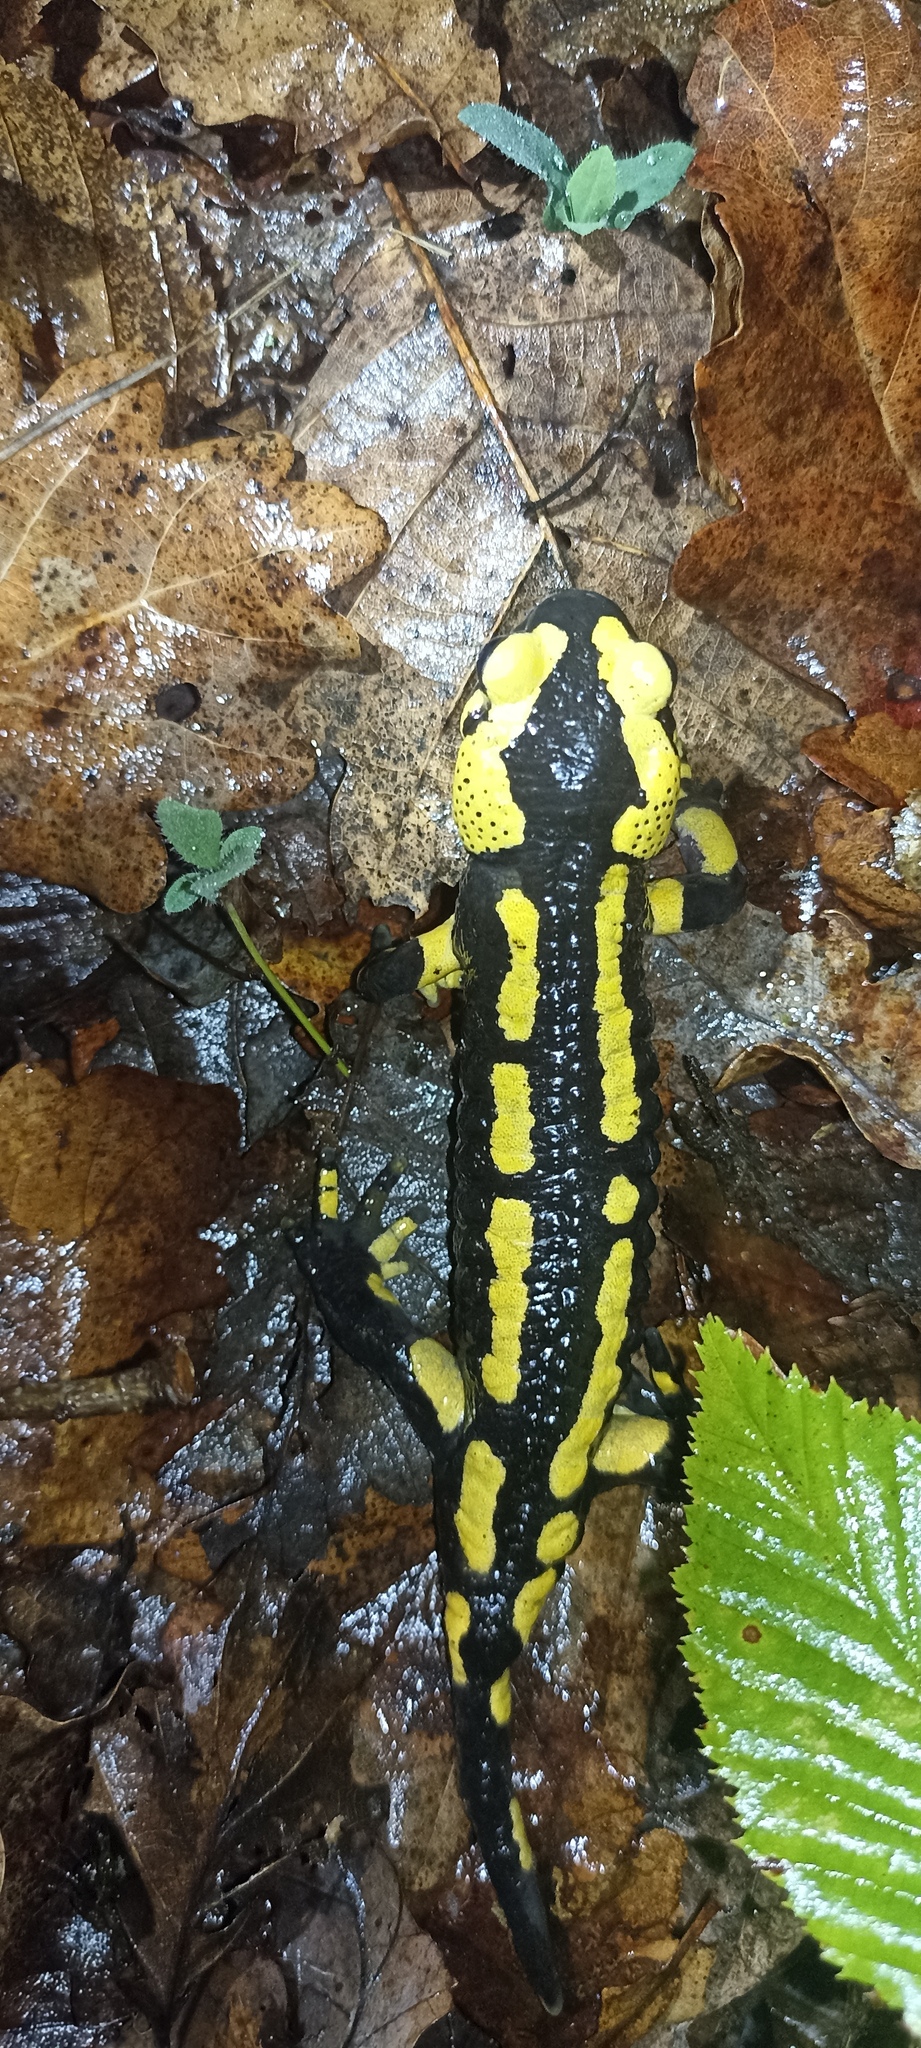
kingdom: Animalia
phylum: Chordata
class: Amphibia
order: Caudata
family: Salamandridae
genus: Salamandra
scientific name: Salamandra salamandra
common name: Fire salamander
